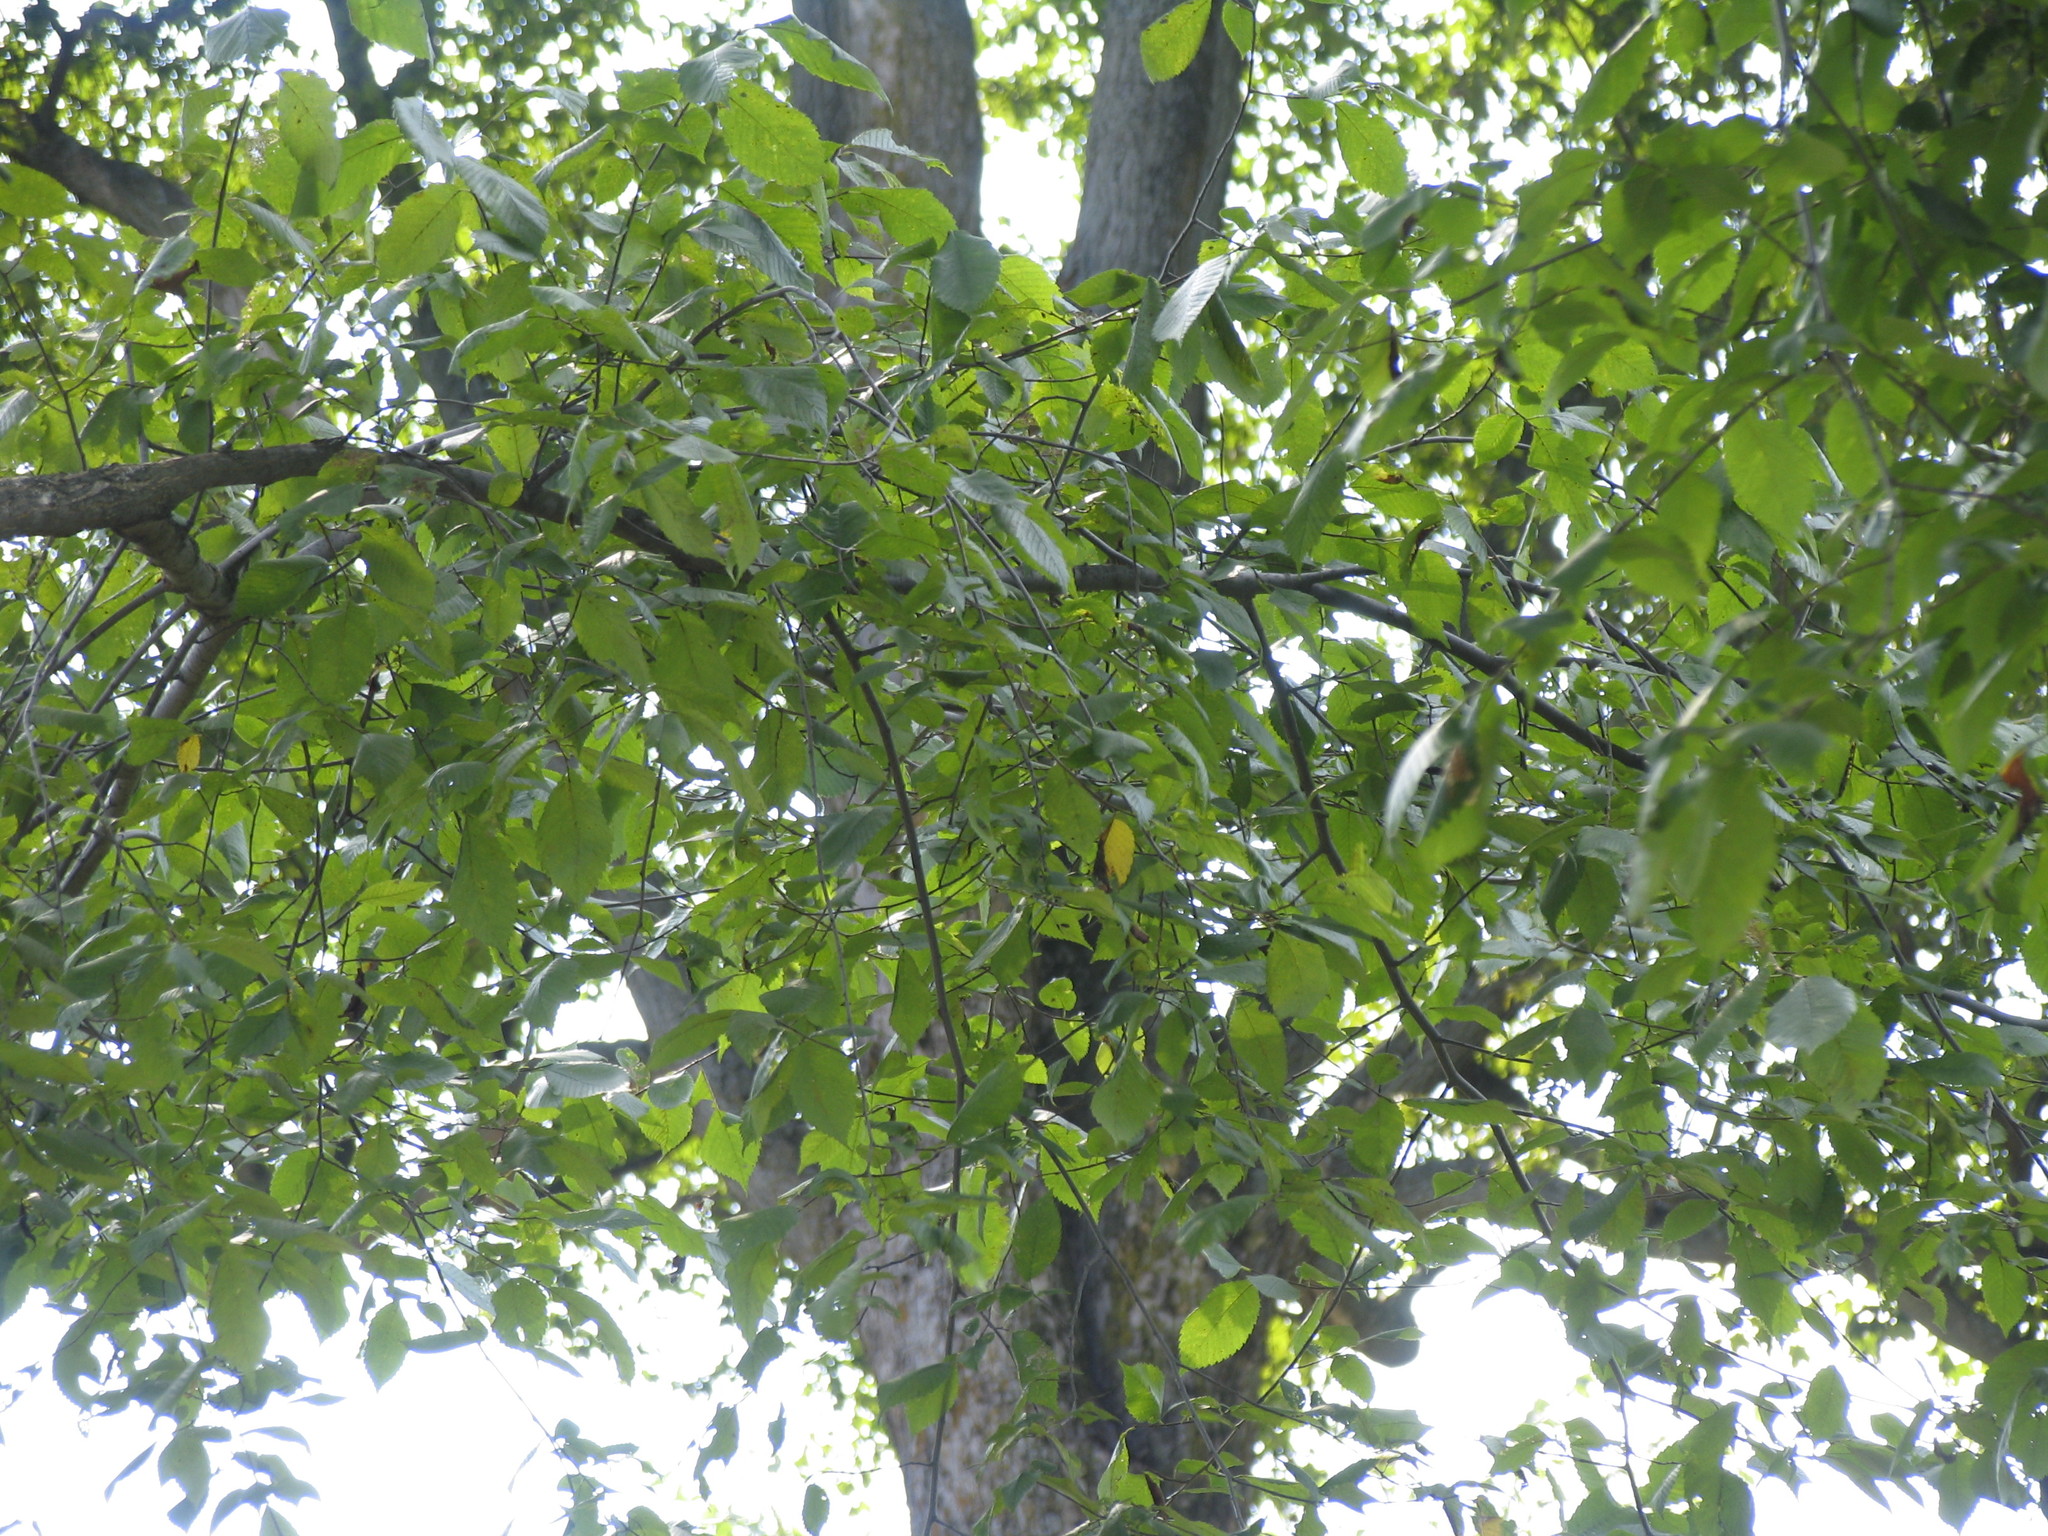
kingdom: Plantae
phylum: Tracheophyta
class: Magnoliopsida
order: Fagales
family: Fagaceae
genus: Fagus
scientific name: Fagus grandifolia
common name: American beech
